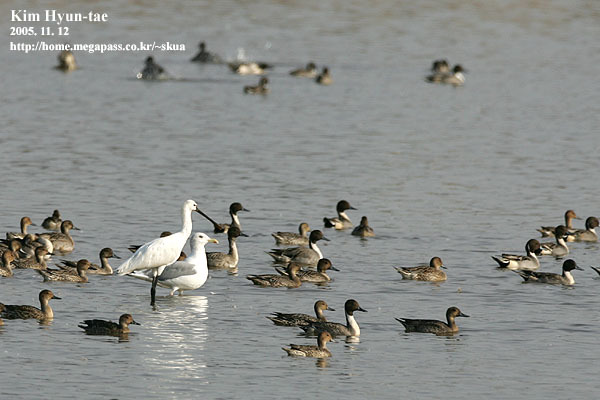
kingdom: Animalia
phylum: Chordata
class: Aves
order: Pelecaniformes
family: Threskiornithidae
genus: Platalea
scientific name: Platalea leucorodia
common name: Eurasian spoonbill
